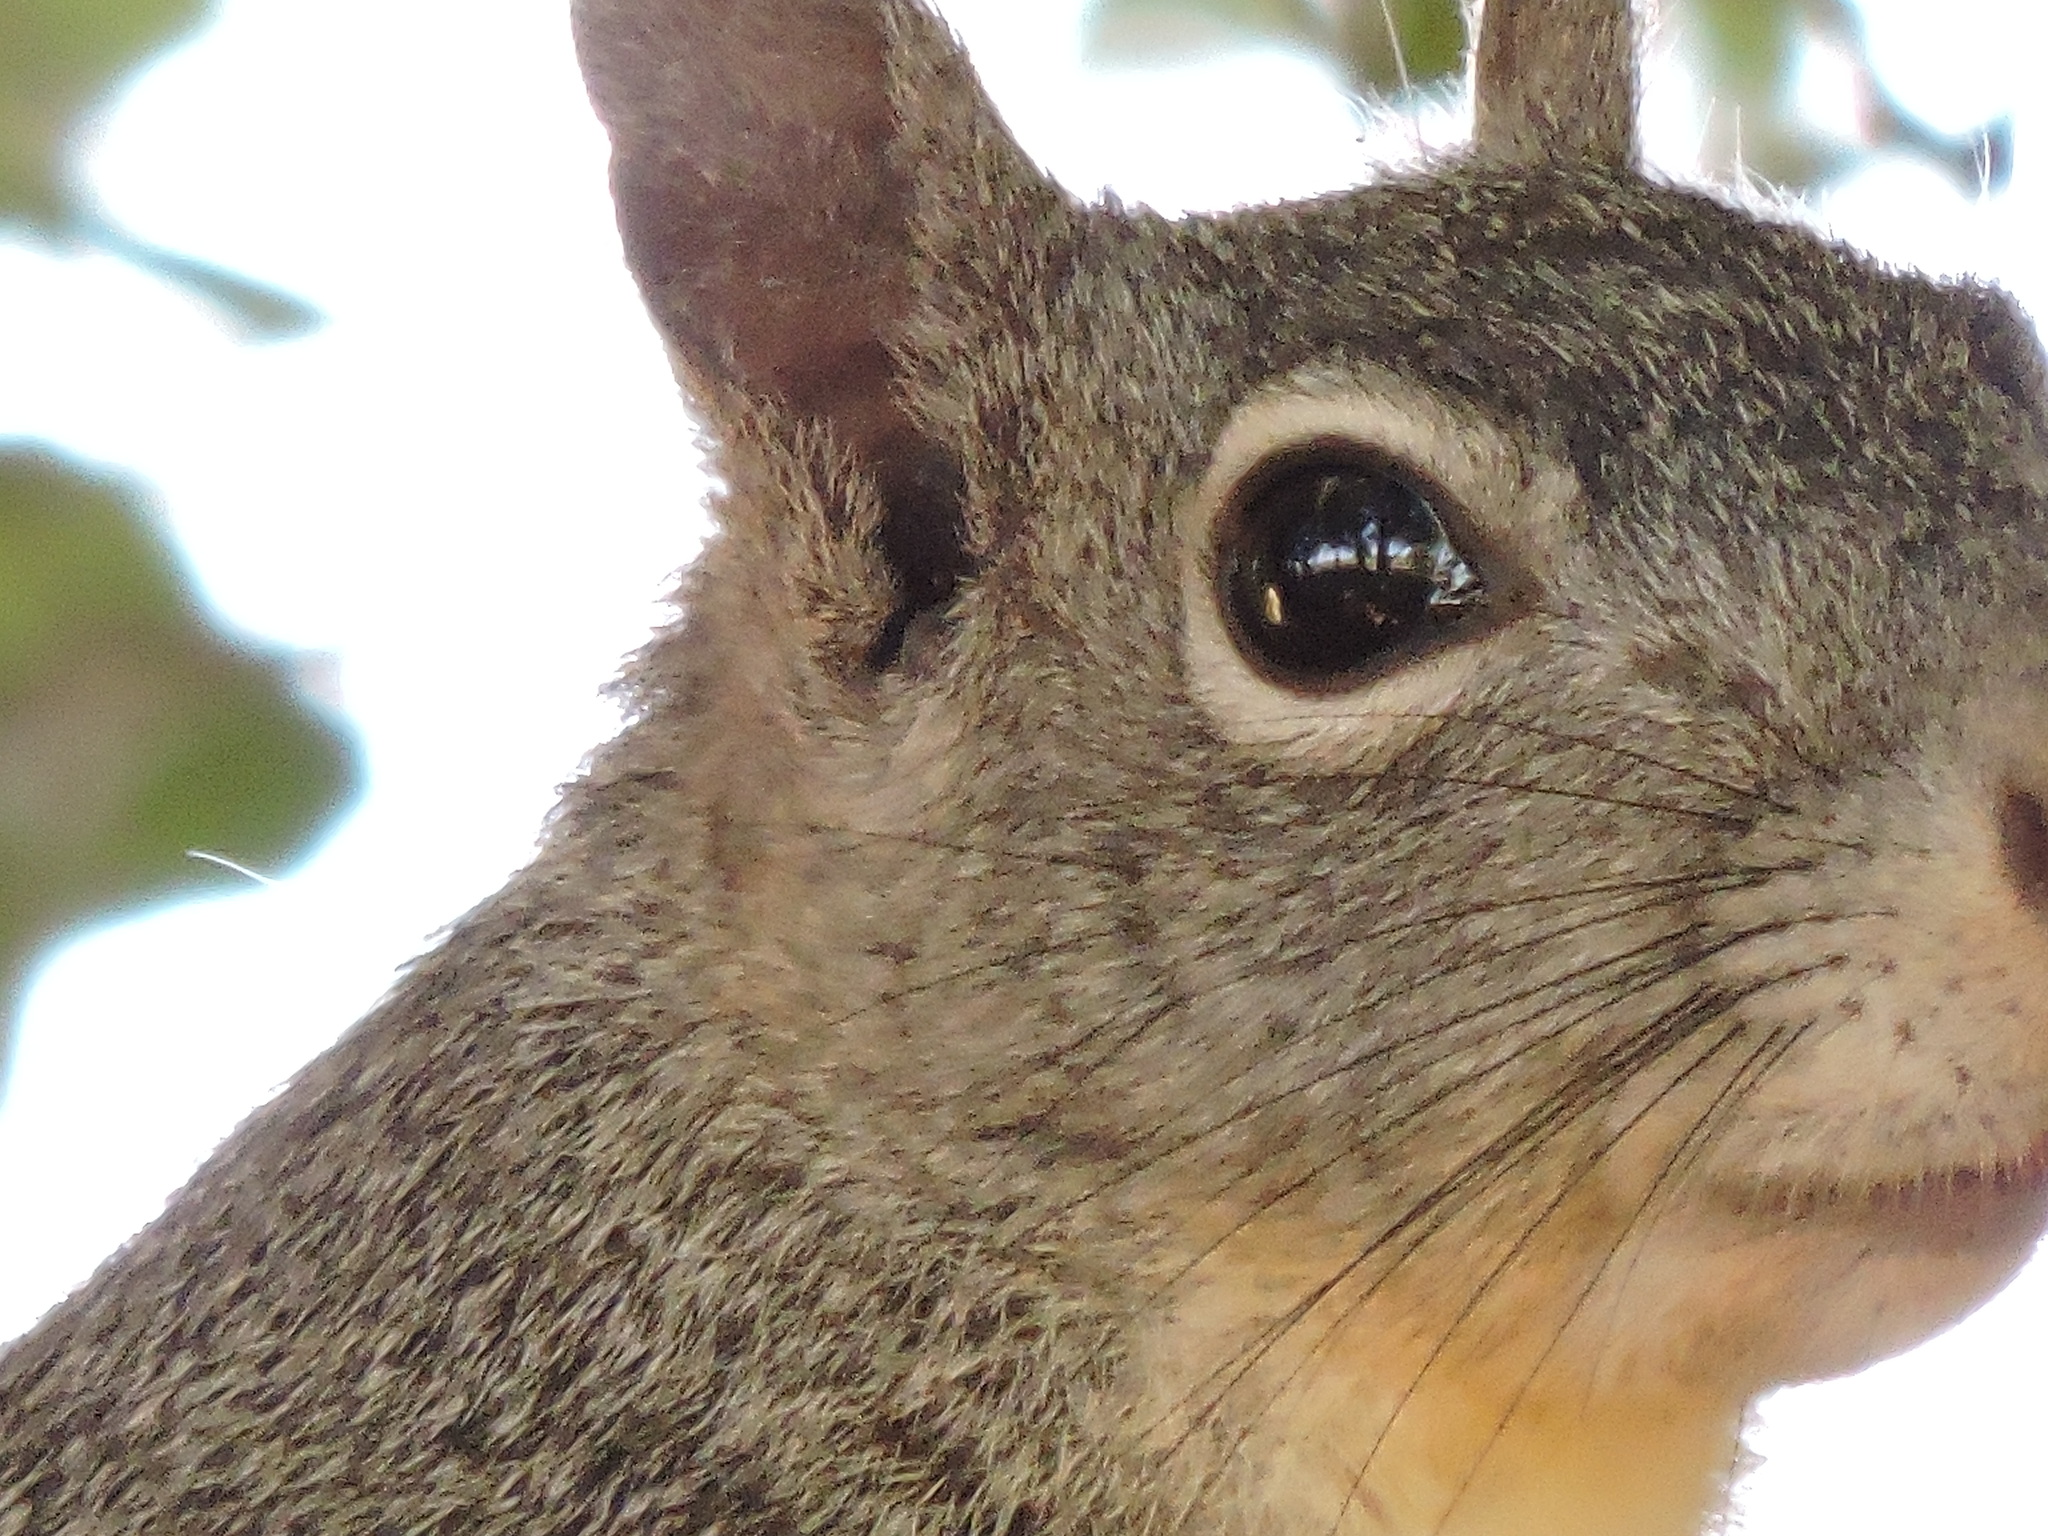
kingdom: Animalia
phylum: Chordata
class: Mammalia
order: Rodentia
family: Sciuridae
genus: Sciurus
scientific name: Sciurus griseus
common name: Western gray squirrel
